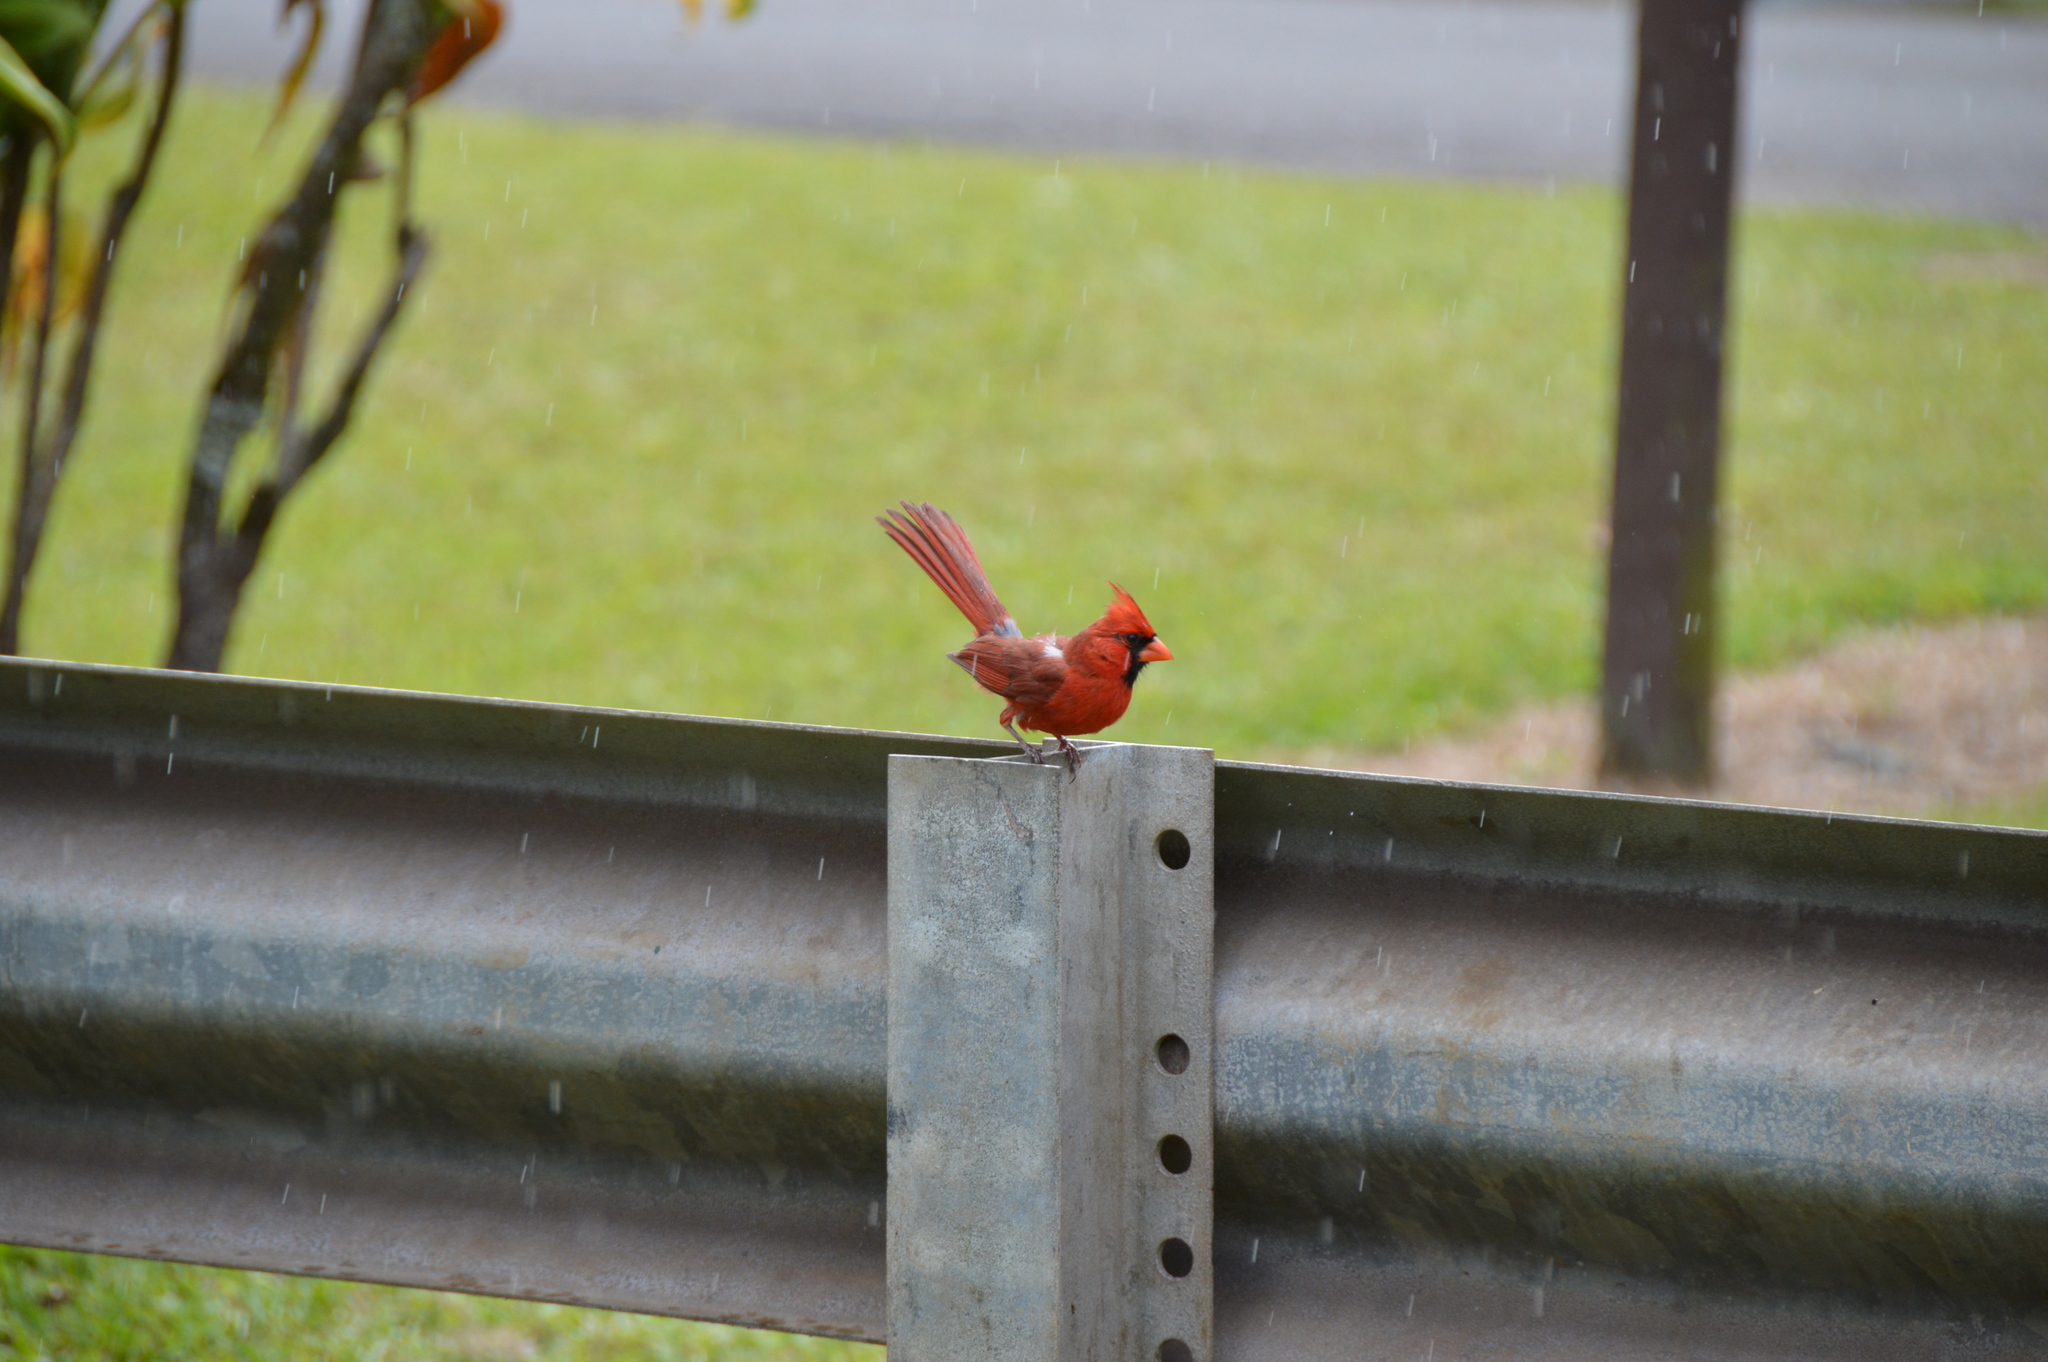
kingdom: Animalia
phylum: Chordata
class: Aves
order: Passeriformes
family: Cardinalidae
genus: Cardinalis
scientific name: Cardinalis cardinalis
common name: Northern cardinal
